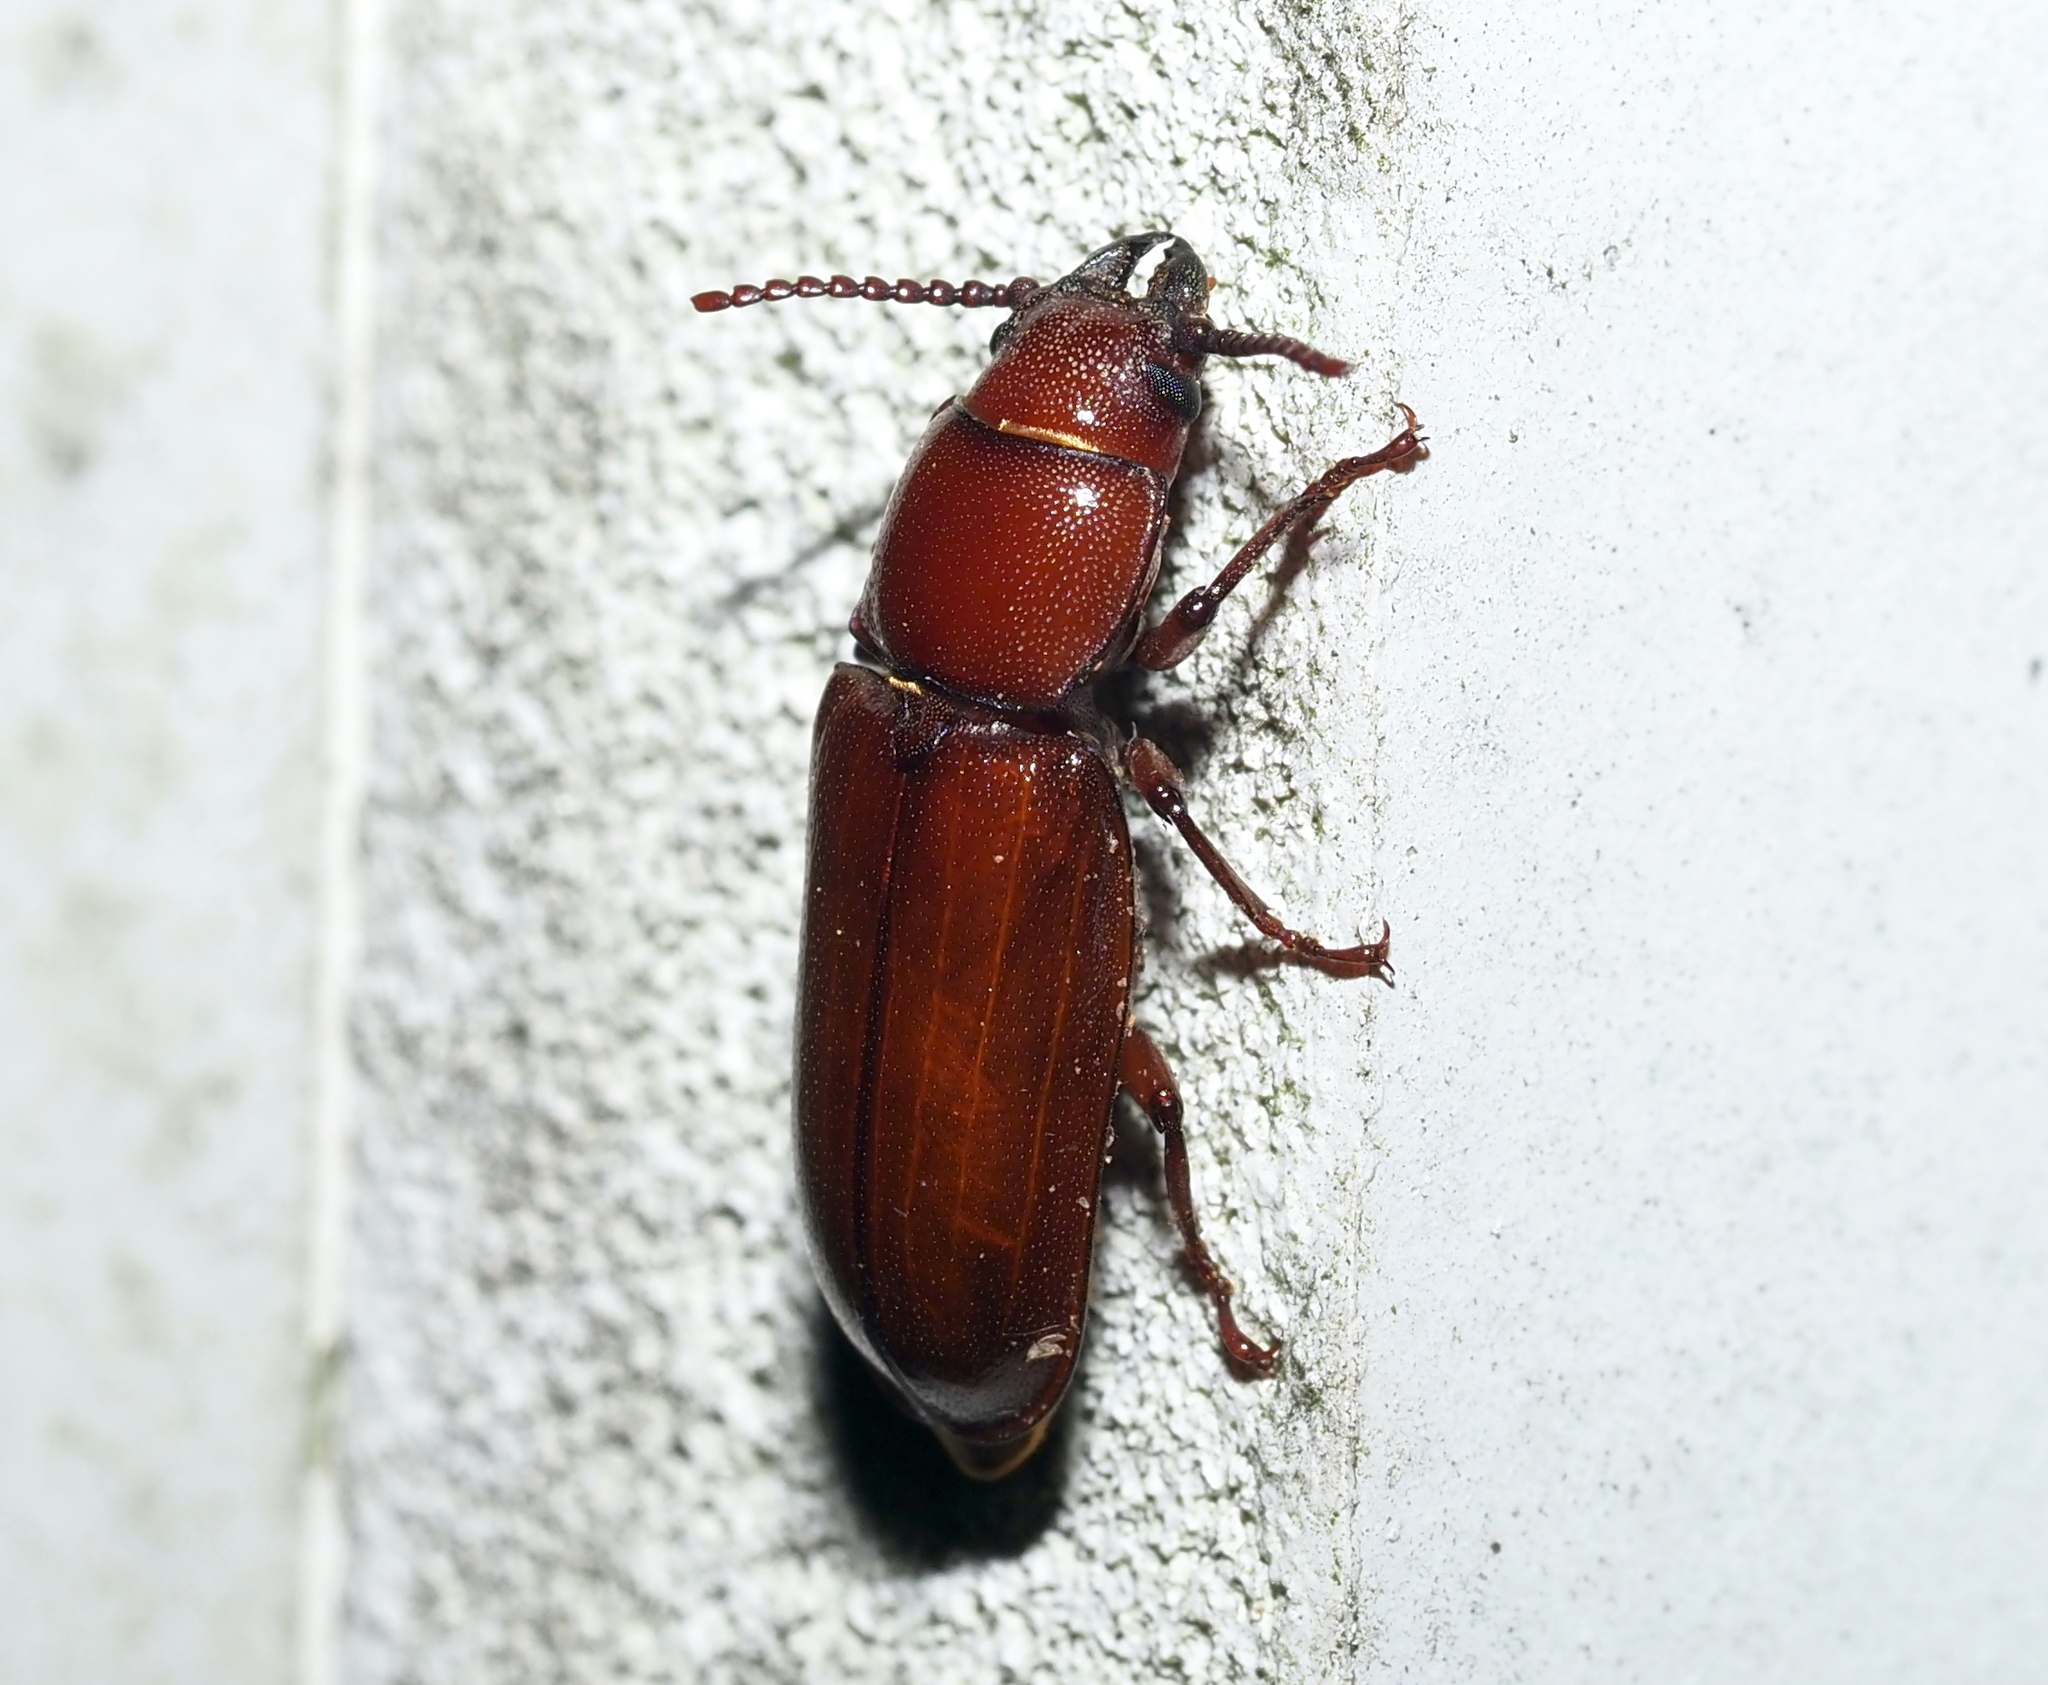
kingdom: Animalia
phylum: Arthropoda
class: Insecta
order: Coleoptera
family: Cerambycidae
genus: Neandra
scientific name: Neandra brunnea
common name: Pole borer
